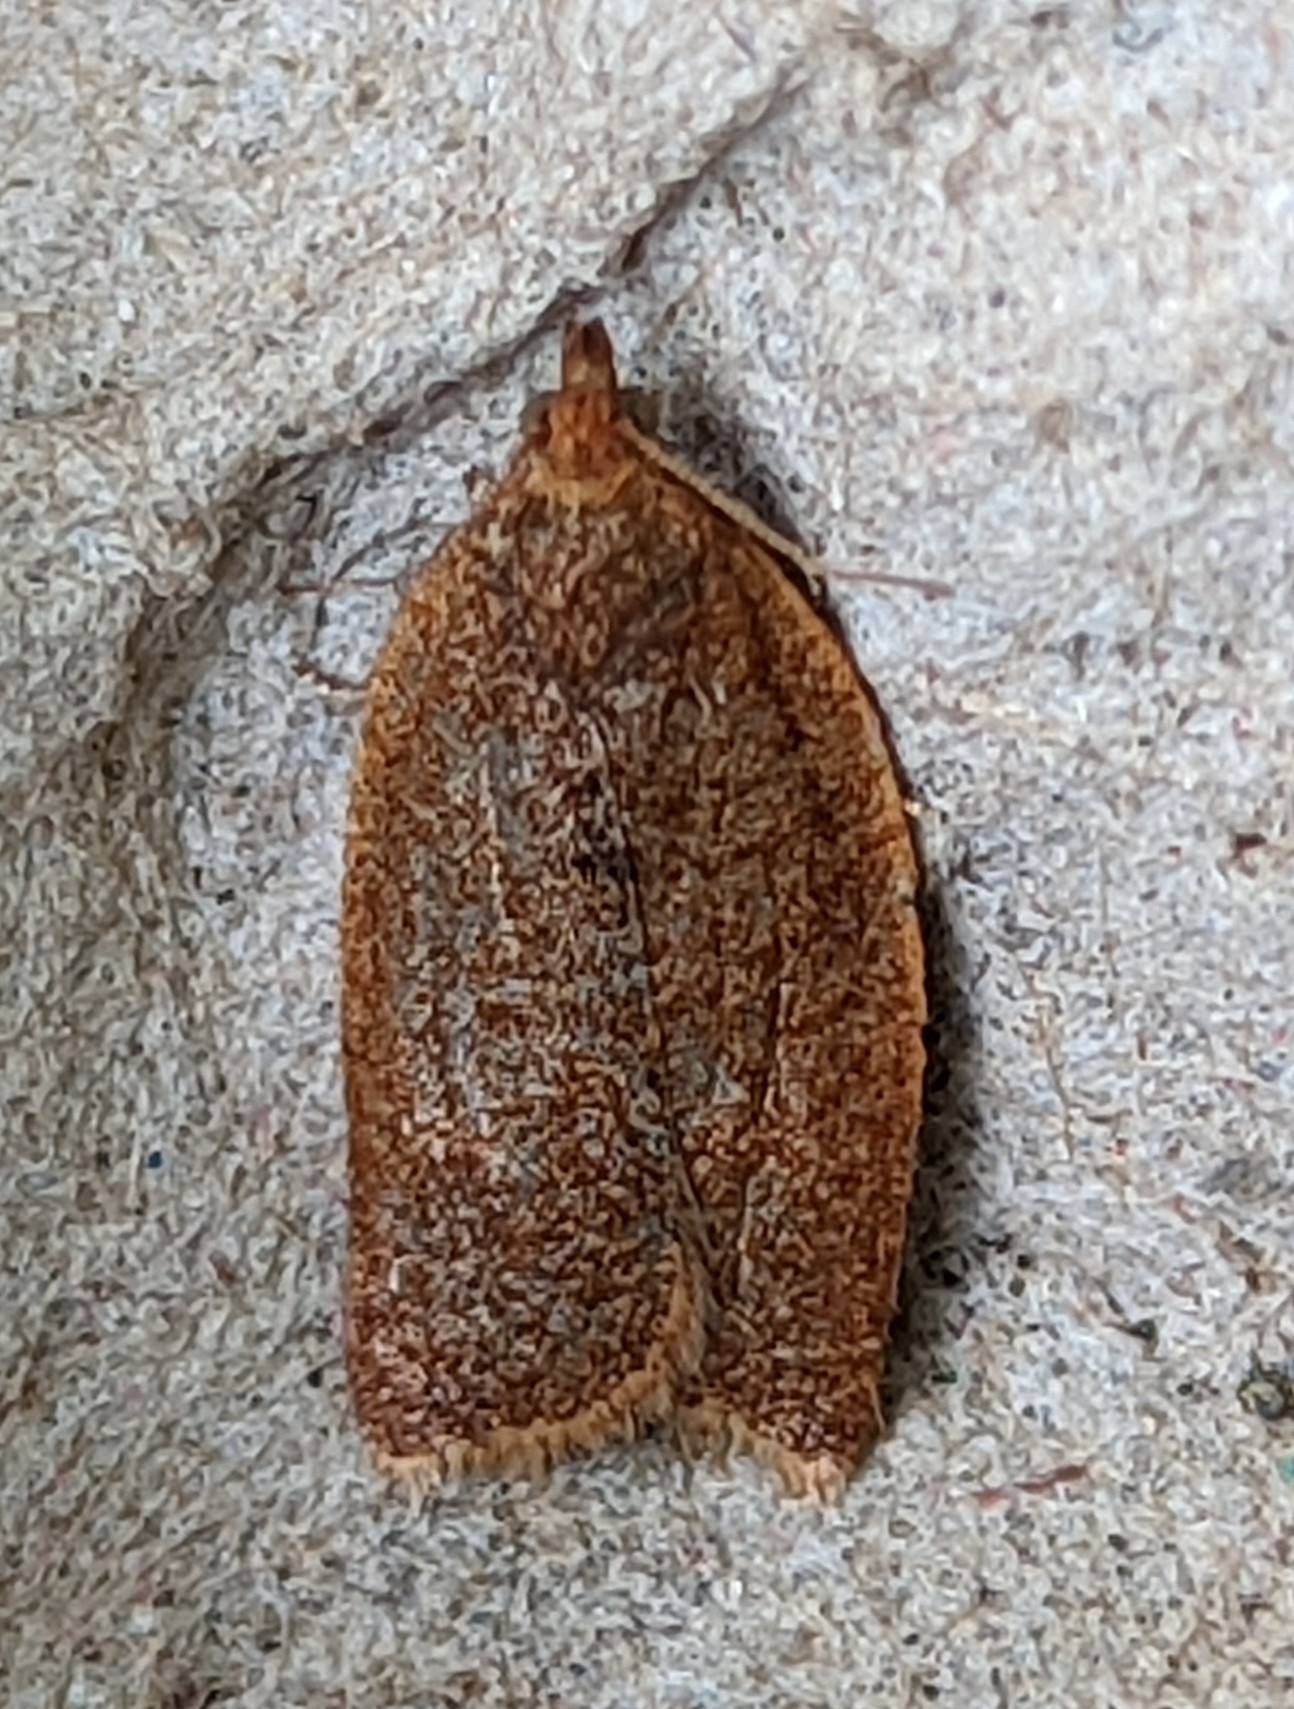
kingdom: Animalia
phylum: Arthropoda
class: Insecta
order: Lepidoptera
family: Tortricidae
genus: Clepsis
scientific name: Clepsis consimilana
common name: Privet tortrix
